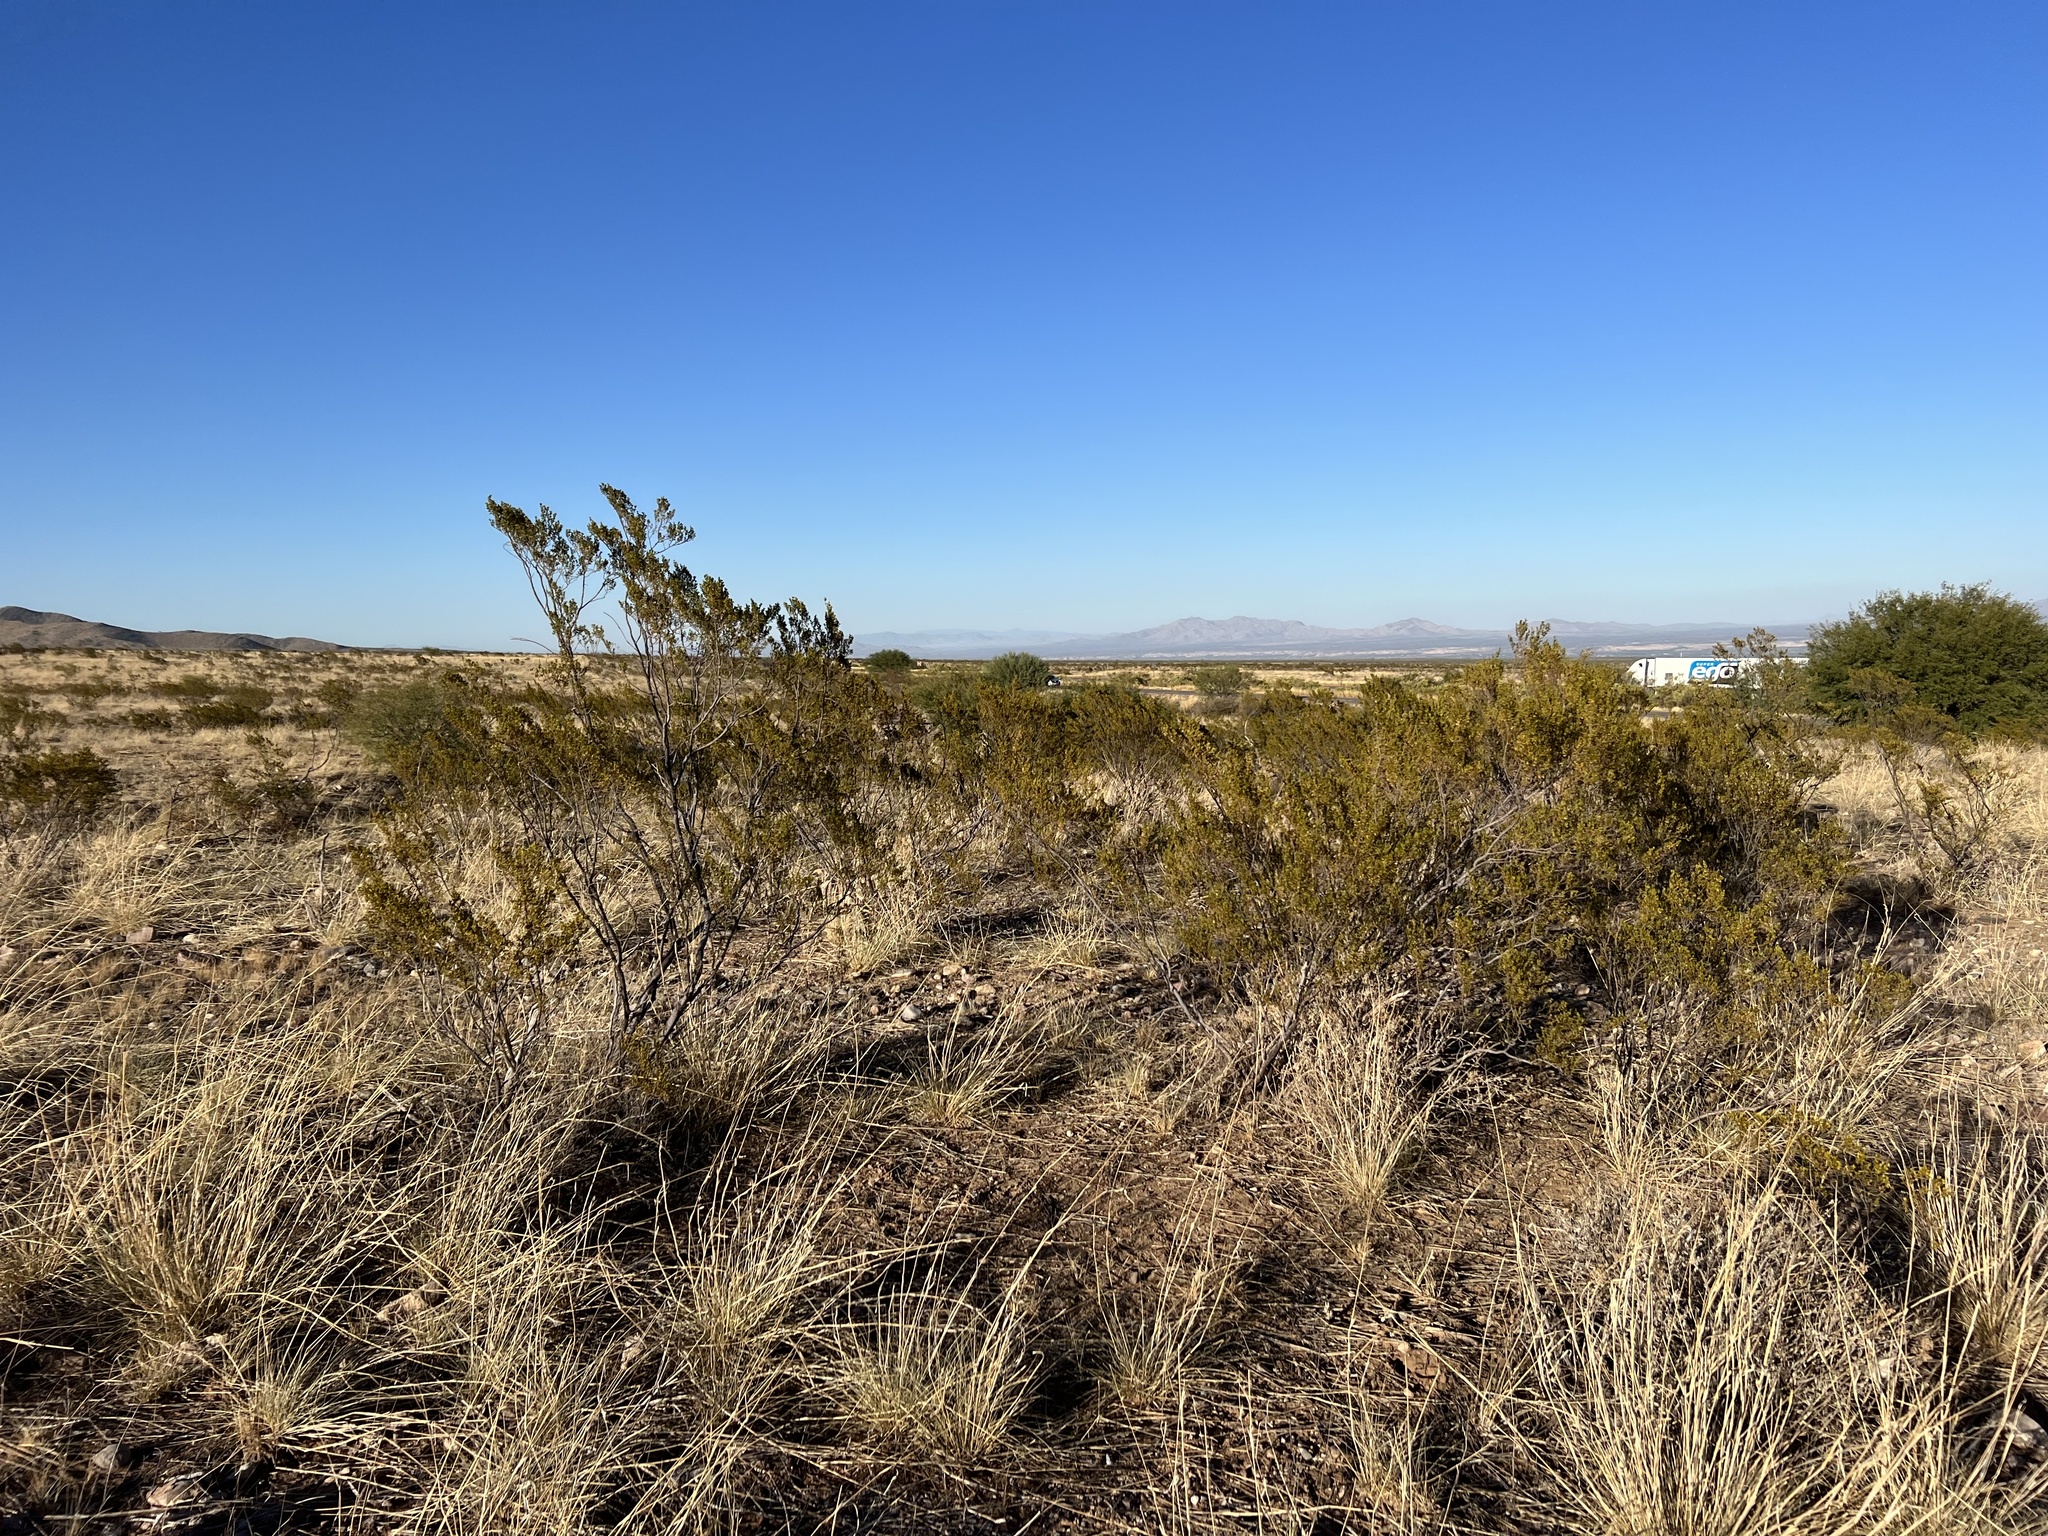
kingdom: Plantae
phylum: Tracheophyta
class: Magnoliopsida
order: Zygophyllales
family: Zygophyllaceae
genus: Larrea
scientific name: Larrea tridentata
